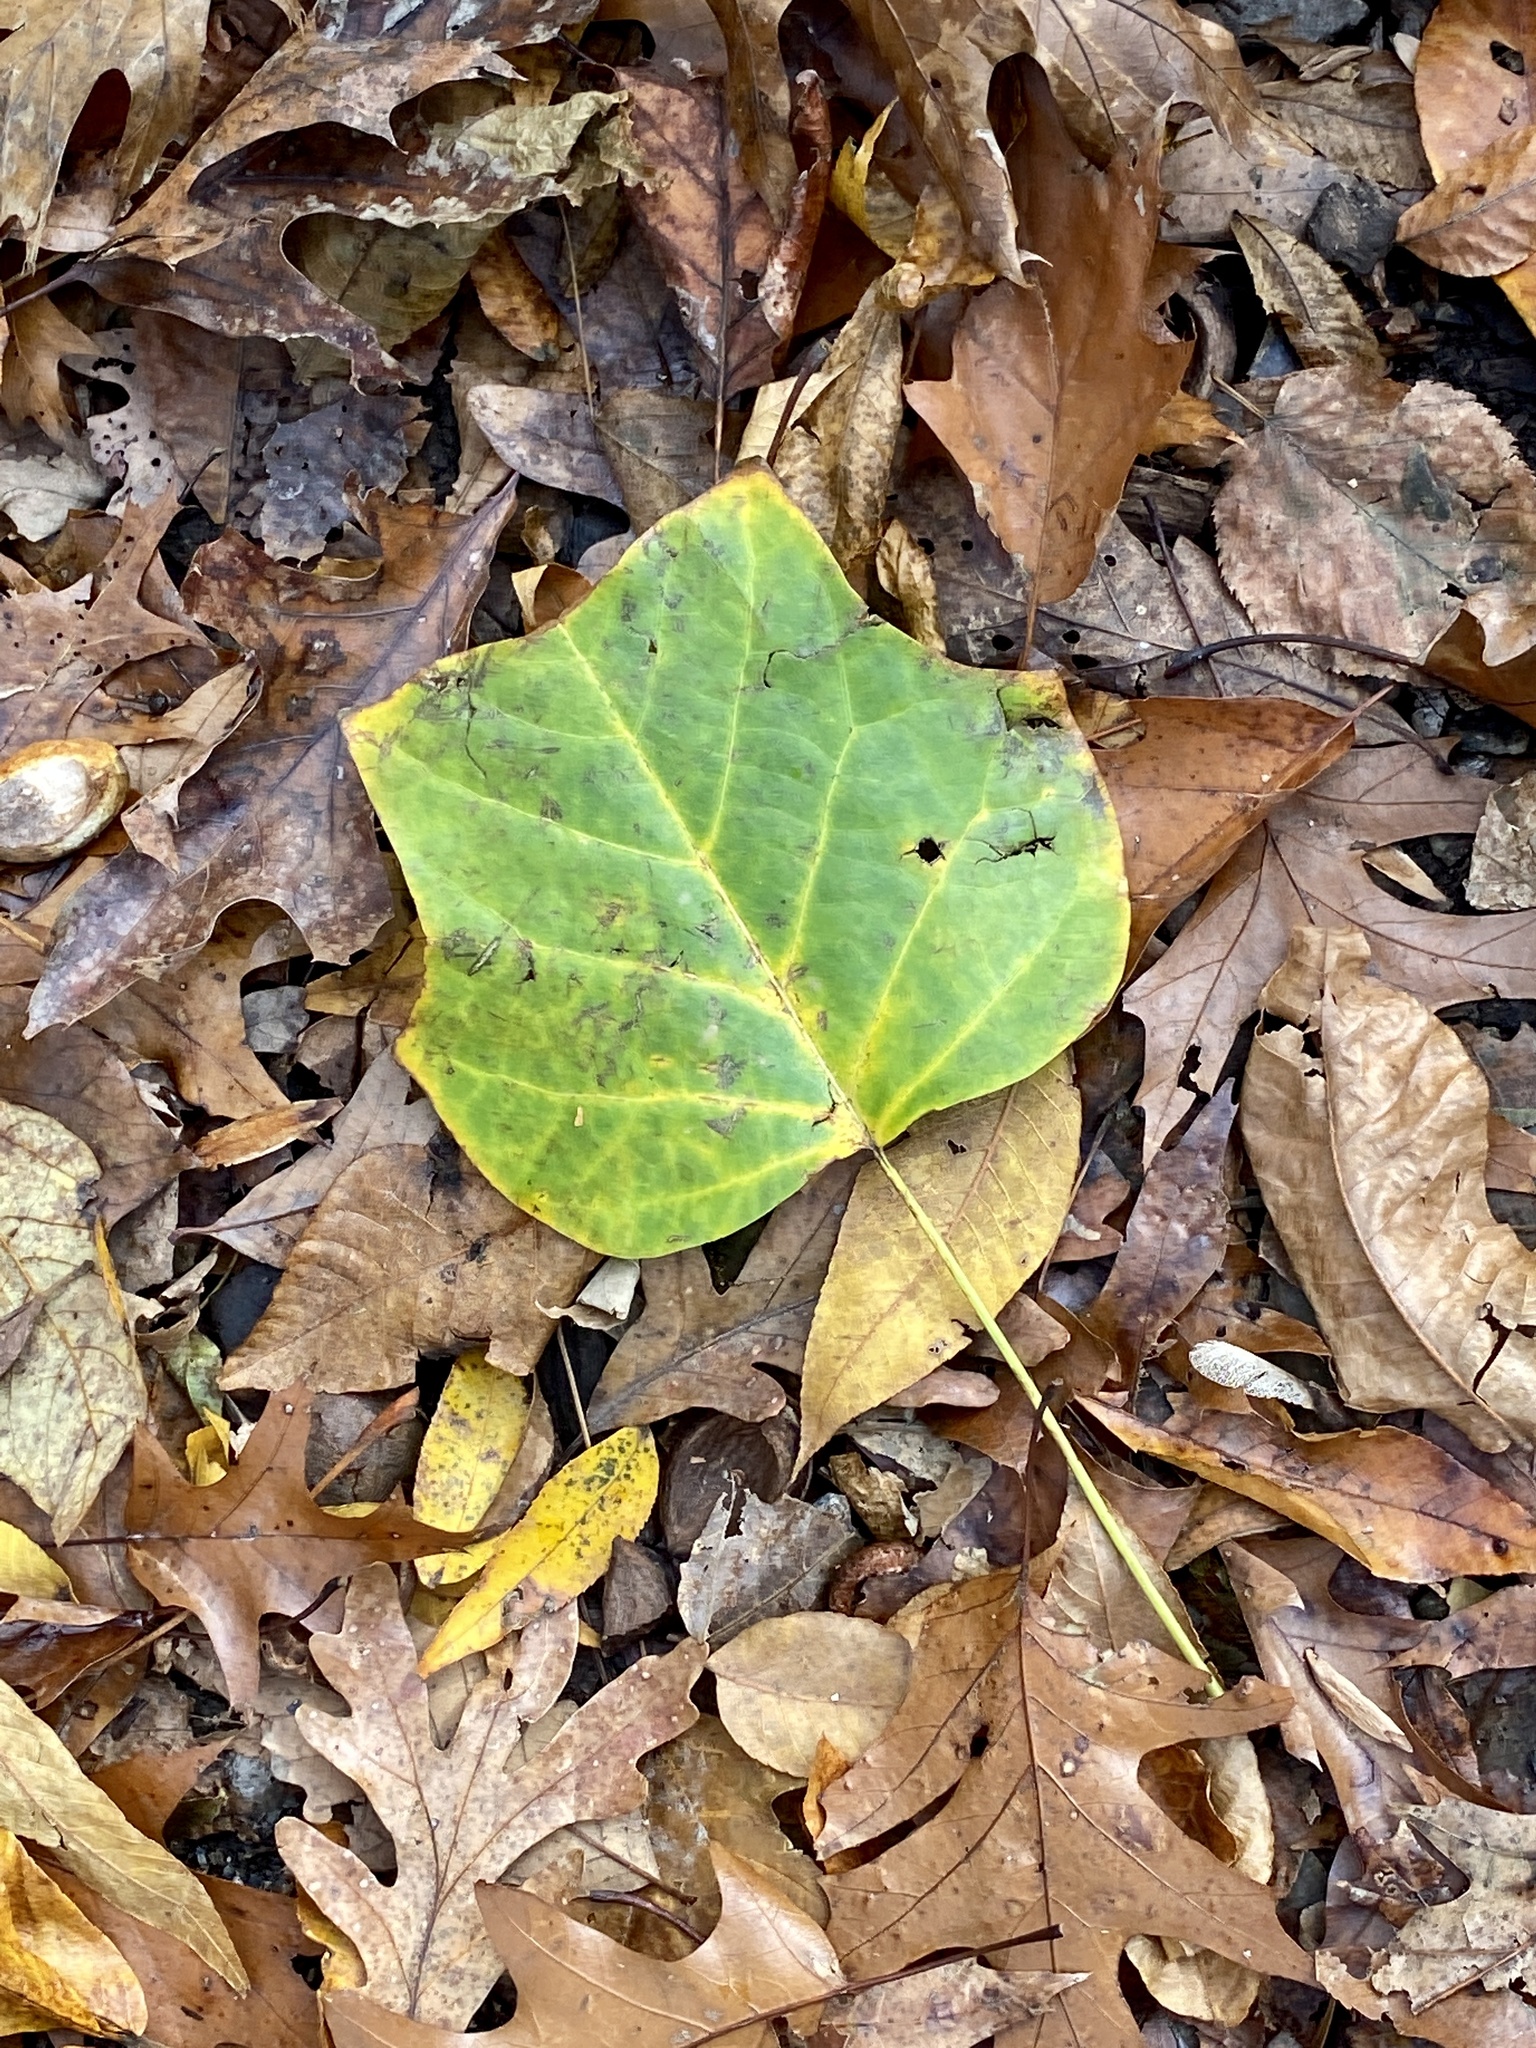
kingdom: Plantae
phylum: Tracheophyta
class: Magnoliopsida
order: Magnoliales
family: Magnoliaceae
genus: Liriodendron
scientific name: Liriodendron tulipifera
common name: Tulip tree
